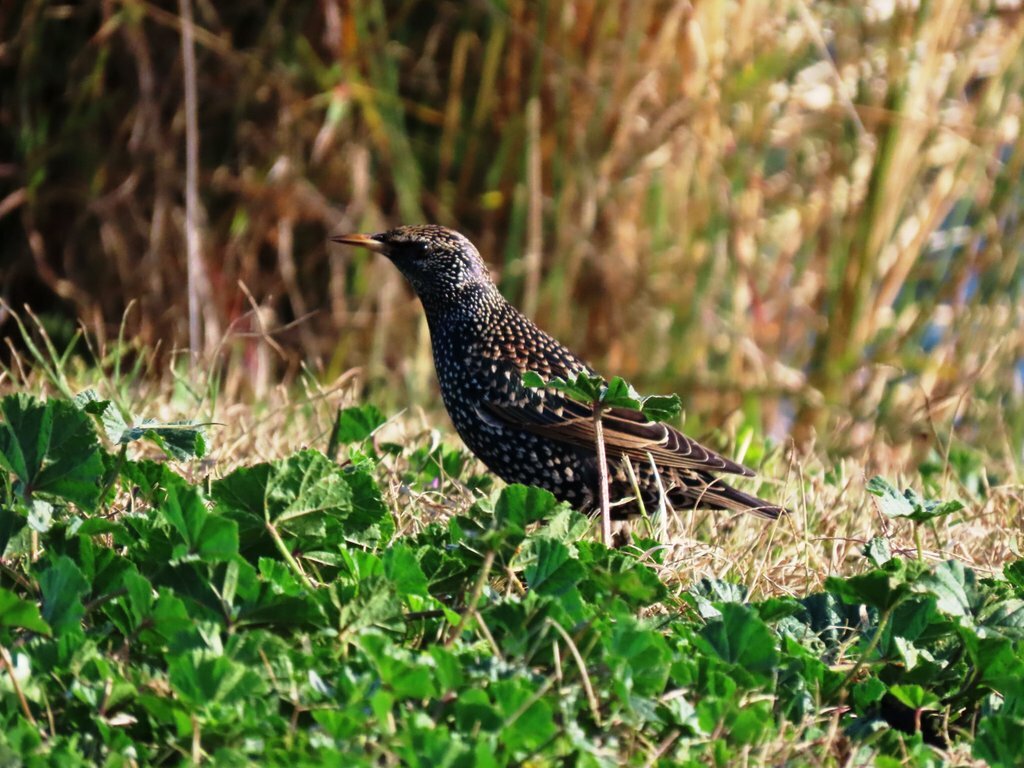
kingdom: Animalia
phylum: Chordata
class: Aves
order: Passeriformes
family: Sturnidae
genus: Sturnus
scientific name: Sturnus vulgaris
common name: Common starling
